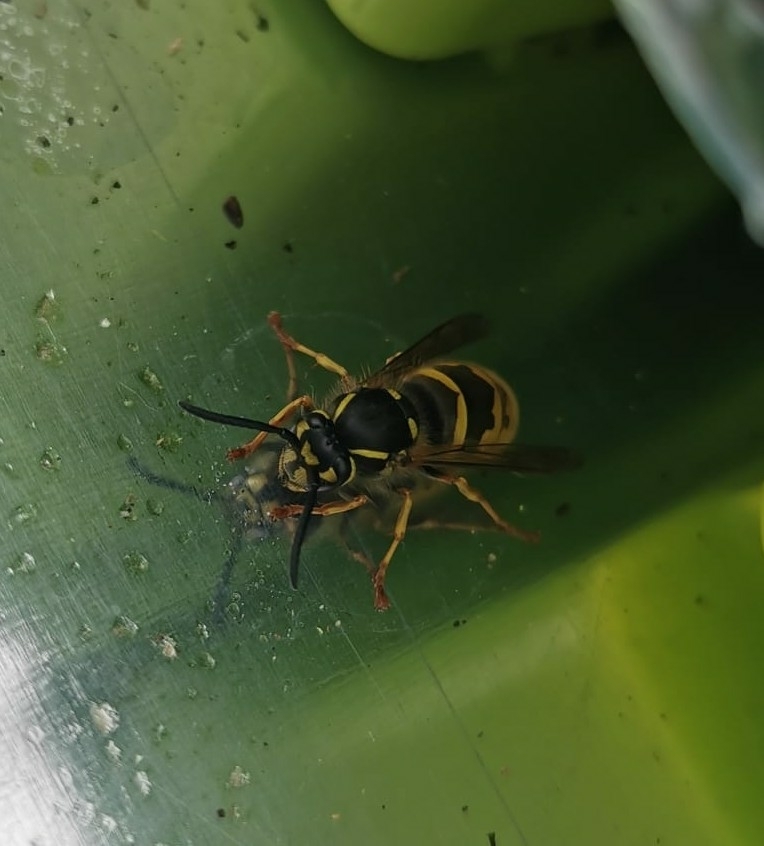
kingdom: Animalia
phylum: Arthropoda
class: Insecta
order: Hymenoptera
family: Vespidae
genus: Vespula
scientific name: Vespula vulgaris
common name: Common wasp
